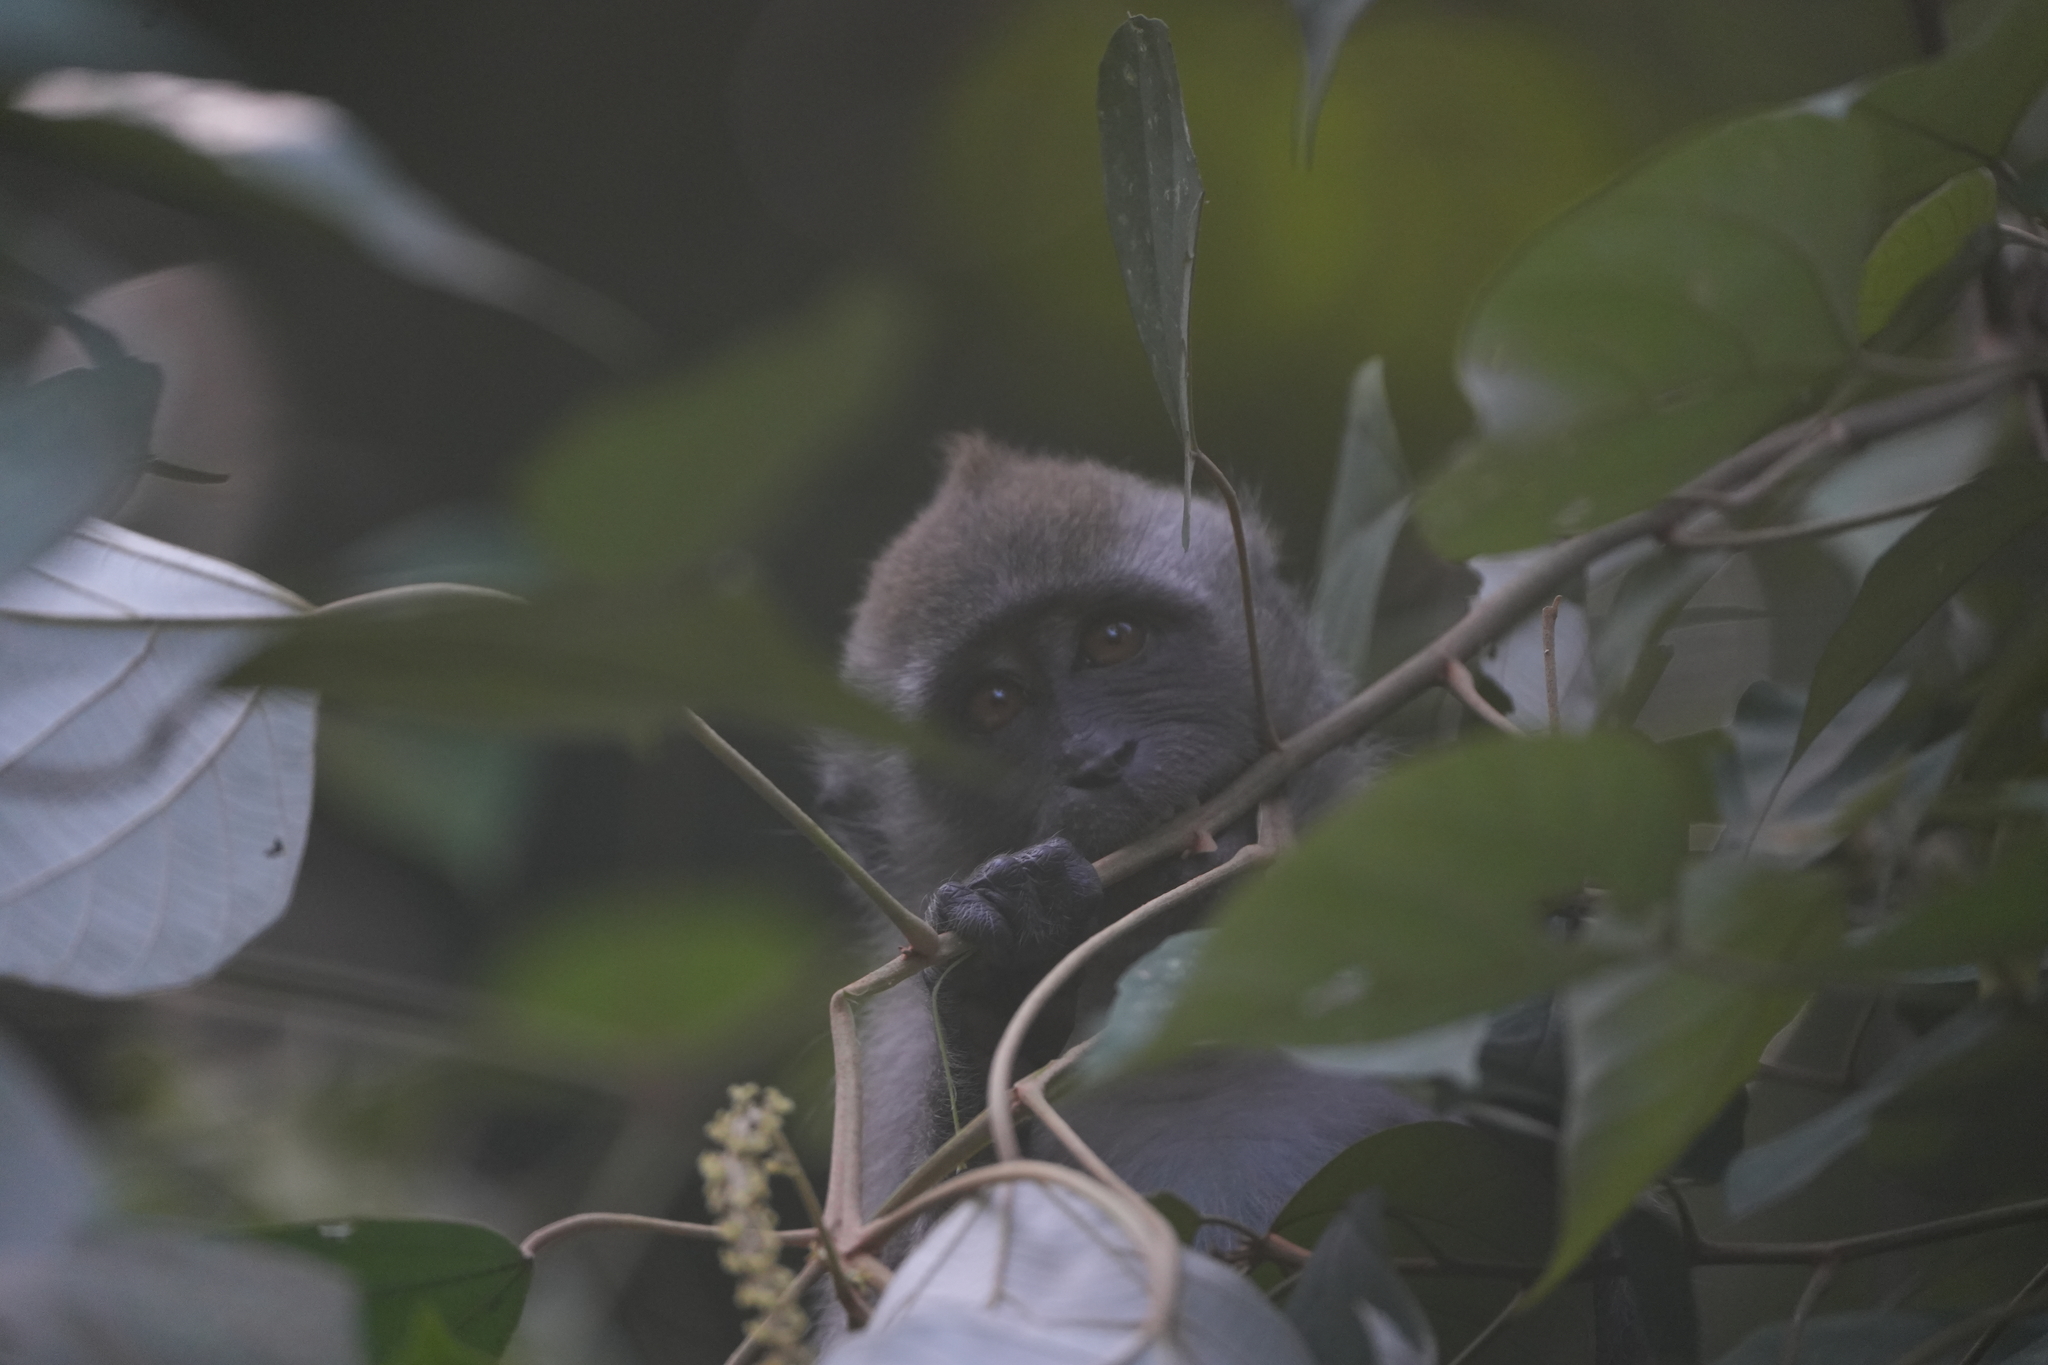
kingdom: Animalia
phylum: Chordata
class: Mammalia
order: Primates
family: Cercopithecidae
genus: Macaca
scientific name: Macaca fascicularis
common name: Crab-eating macaque
